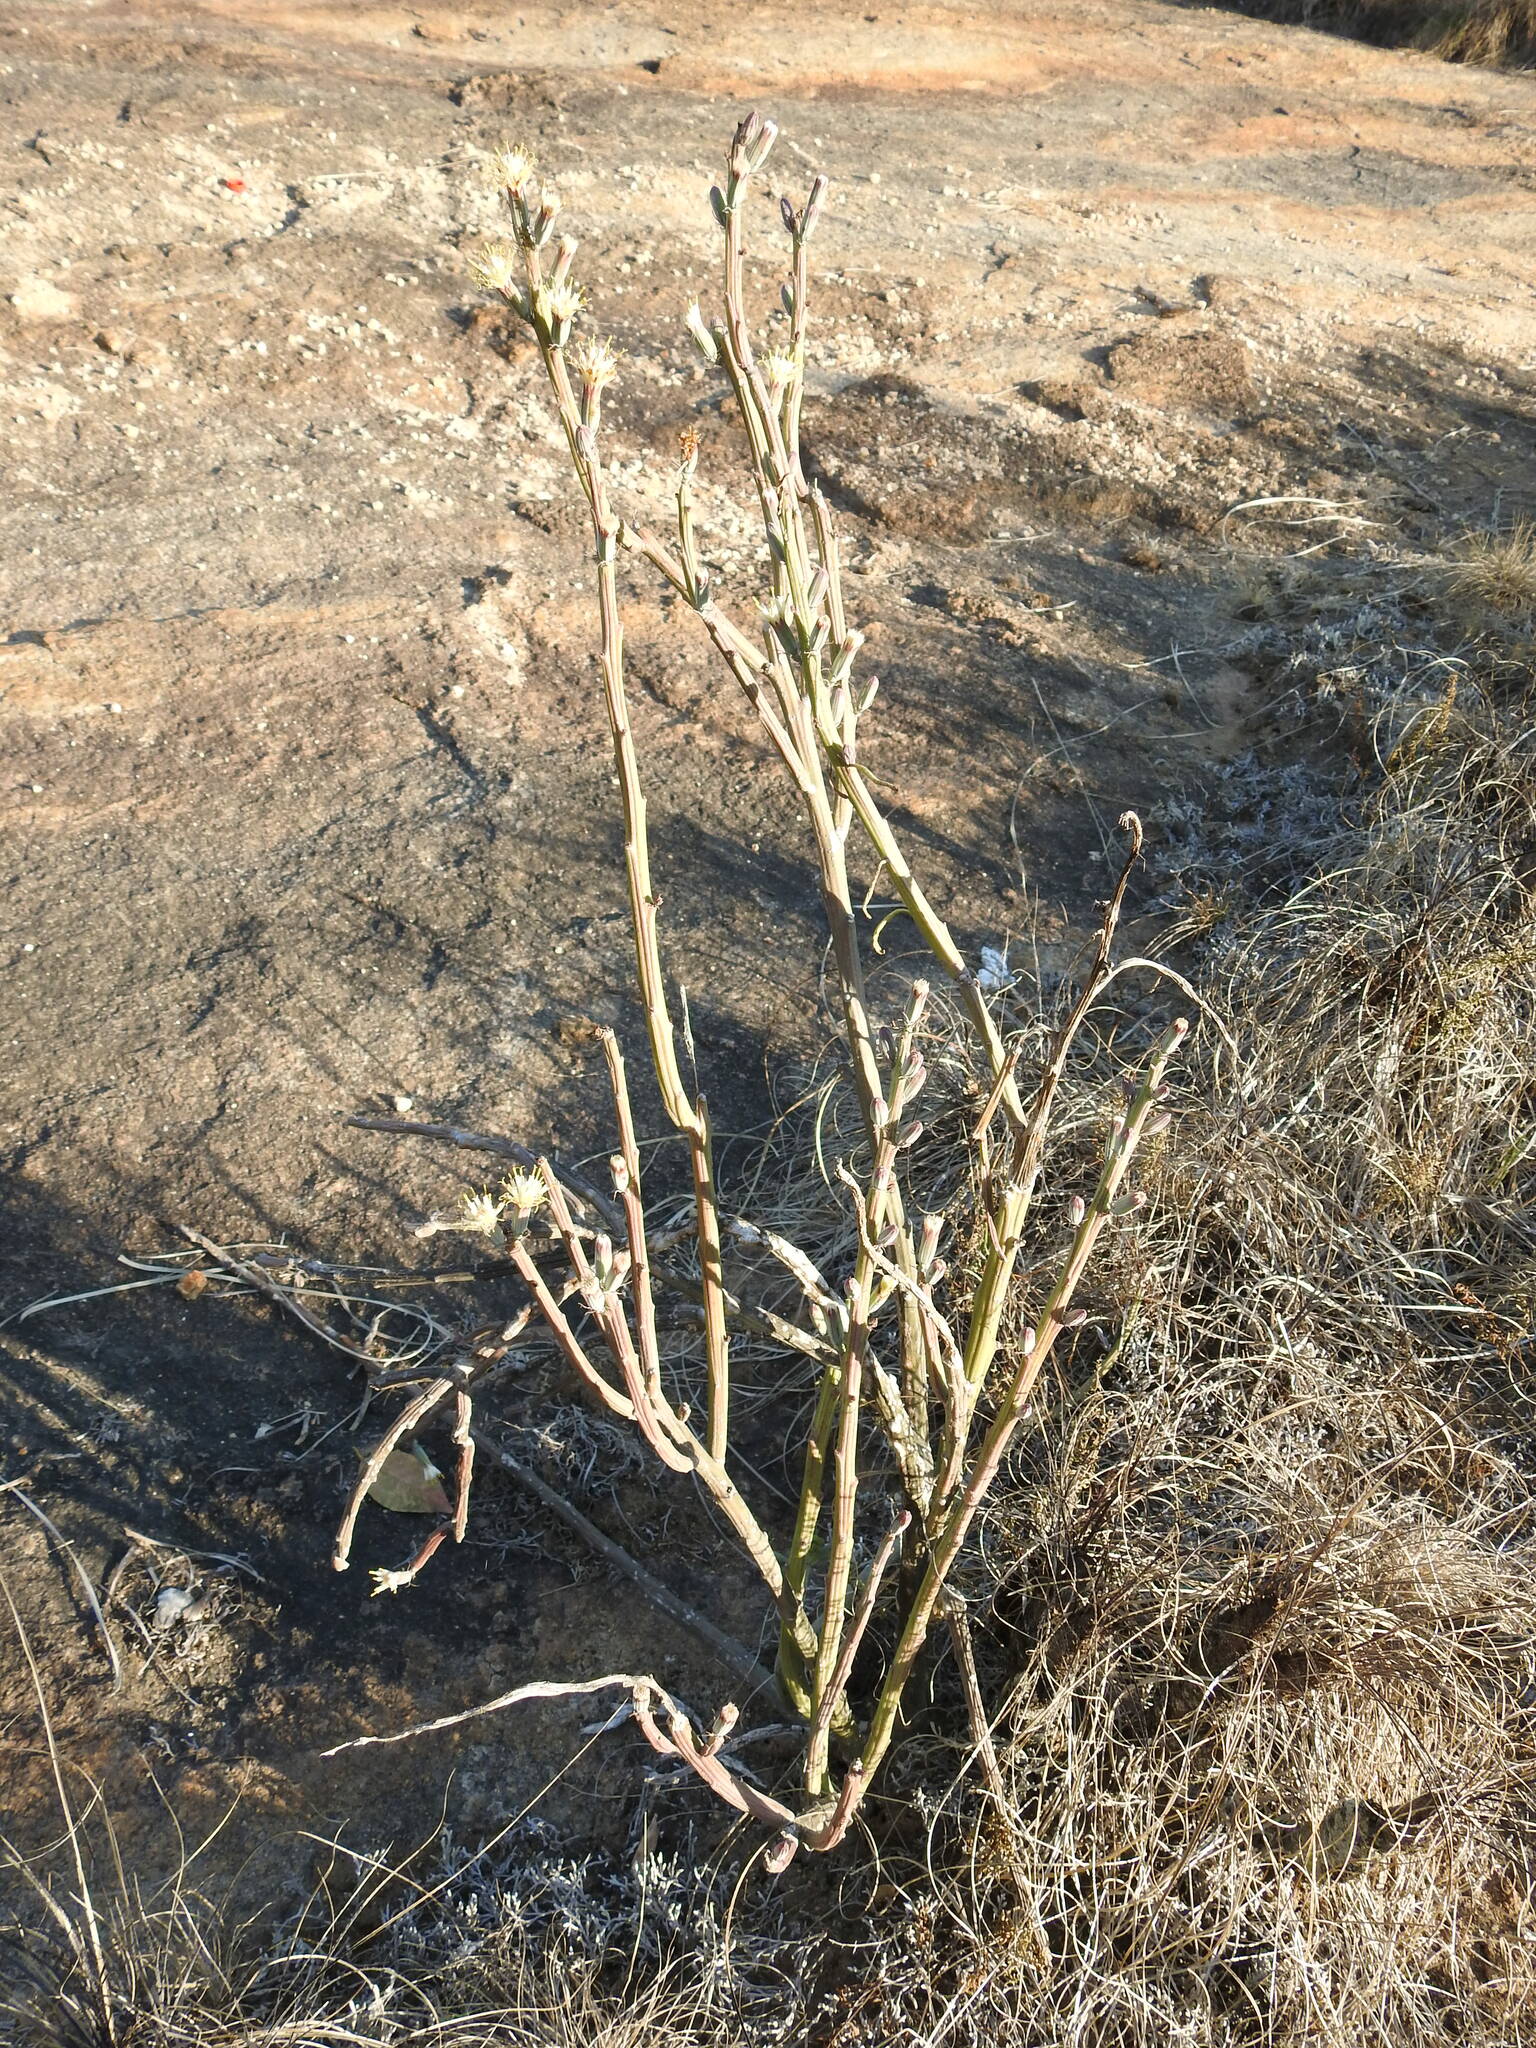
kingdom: Plantae
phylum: Tracheophyta
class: Magnoliopsida
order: Asterales
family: Asteraceae
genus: Curio
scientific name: Curio avasimontanus
